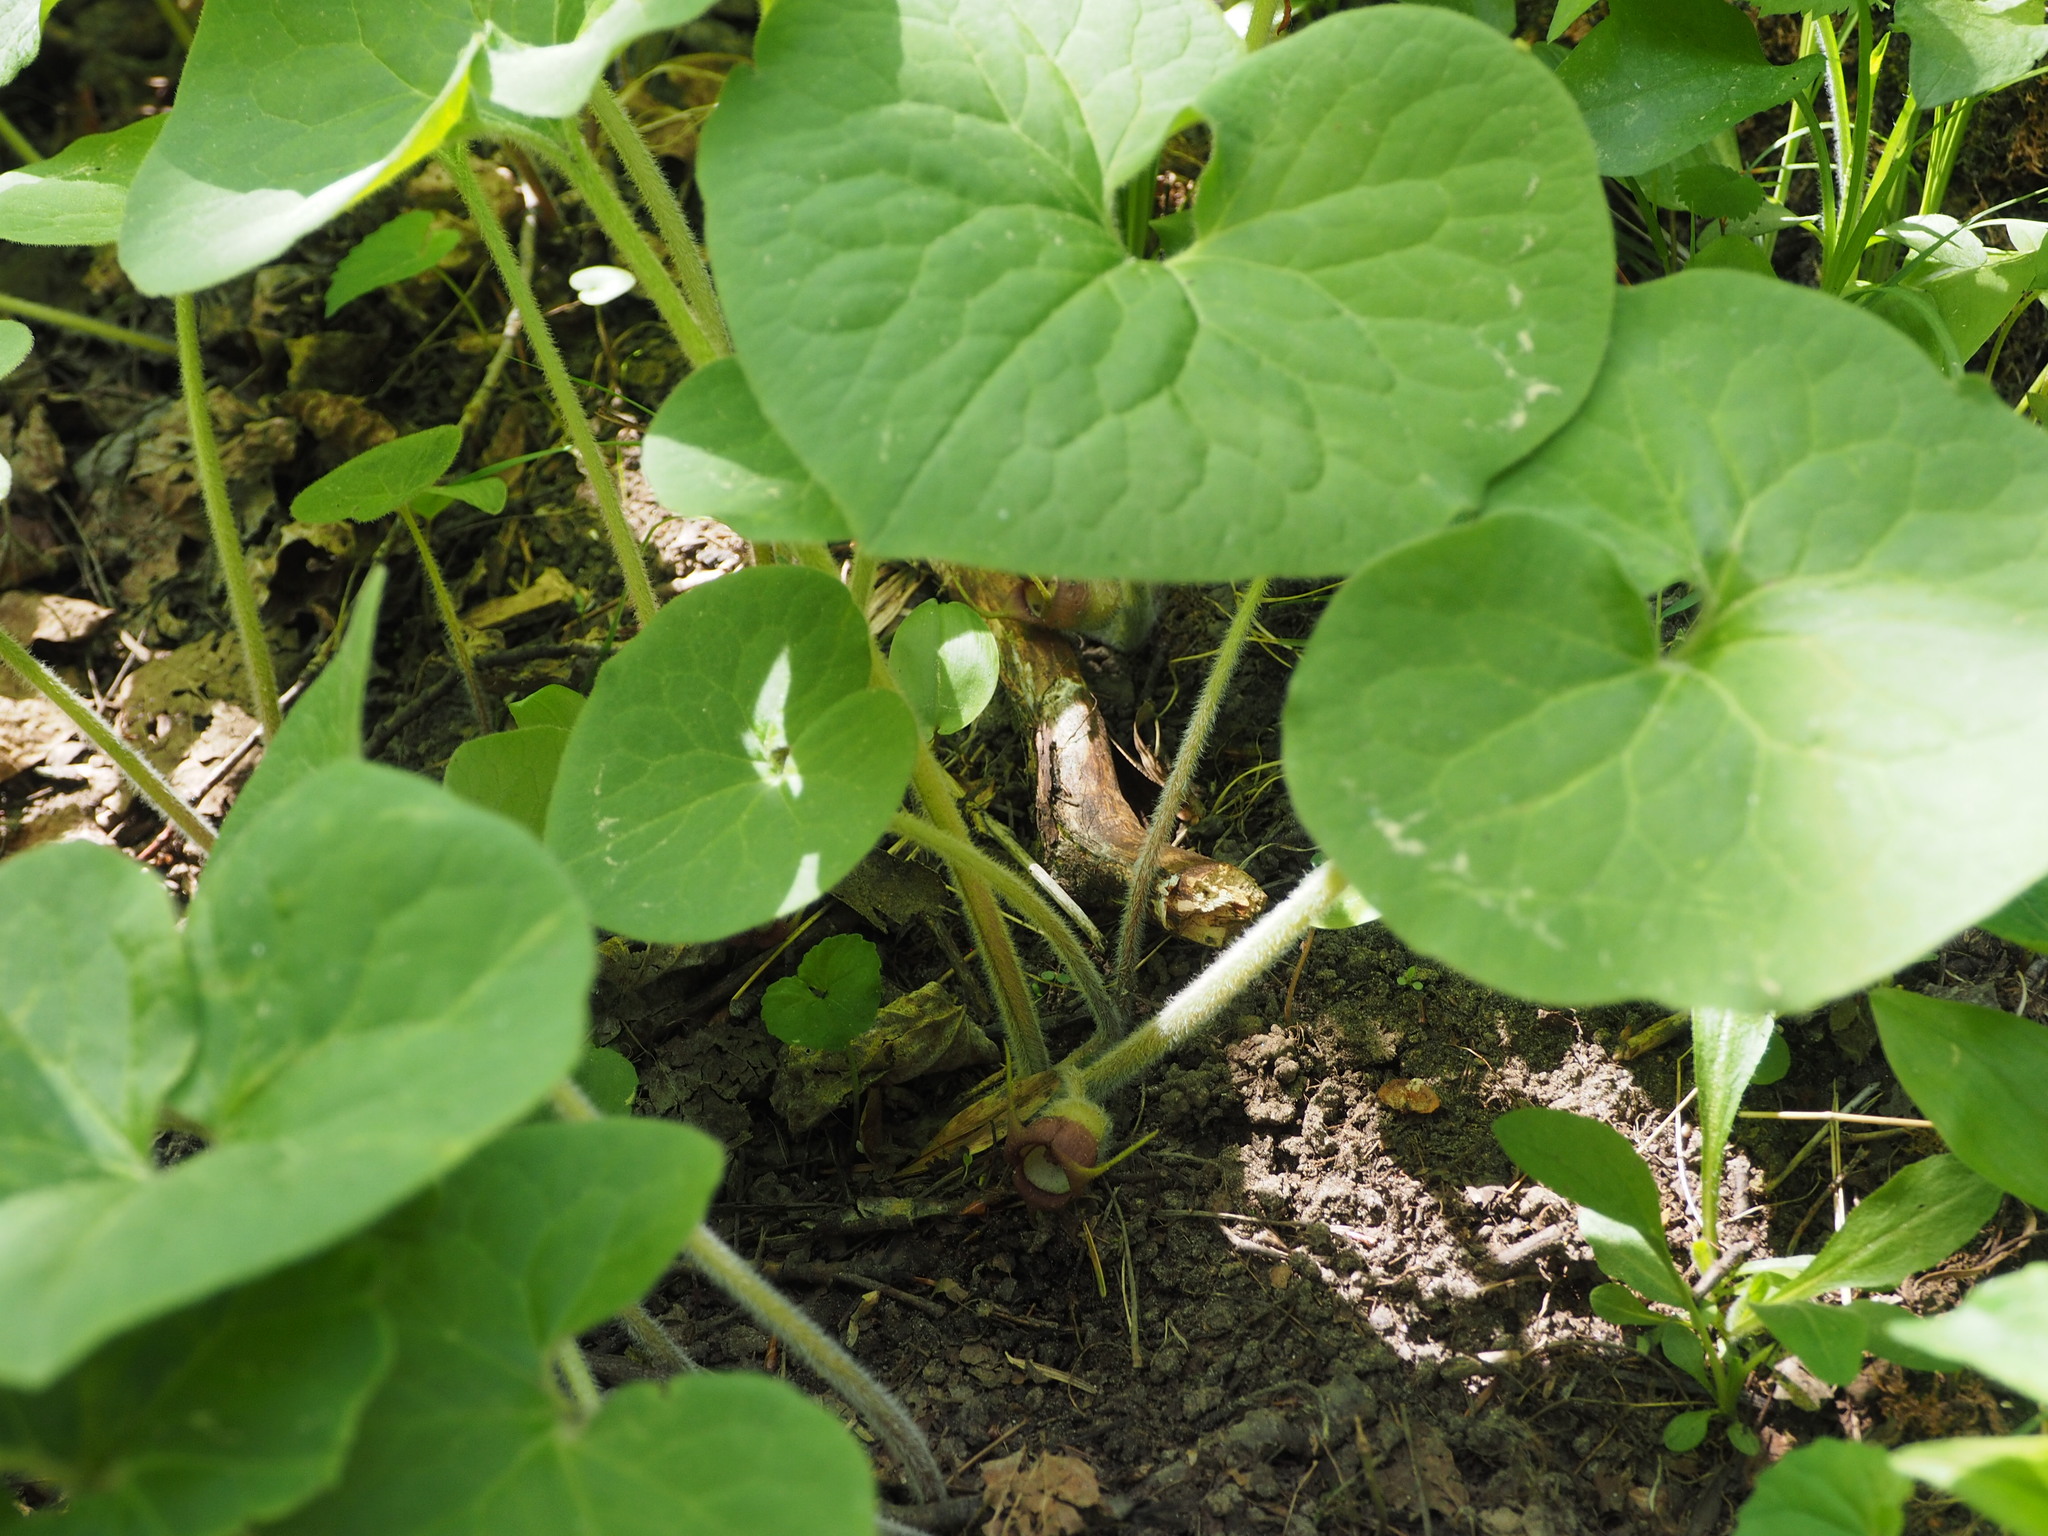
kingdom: Plantae
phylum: Tracheophyta
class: Magnoliopsida
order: Piperales
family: Aristolochiaceae
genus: Asarum
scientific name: Asarum canadense
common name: Wild ginger
